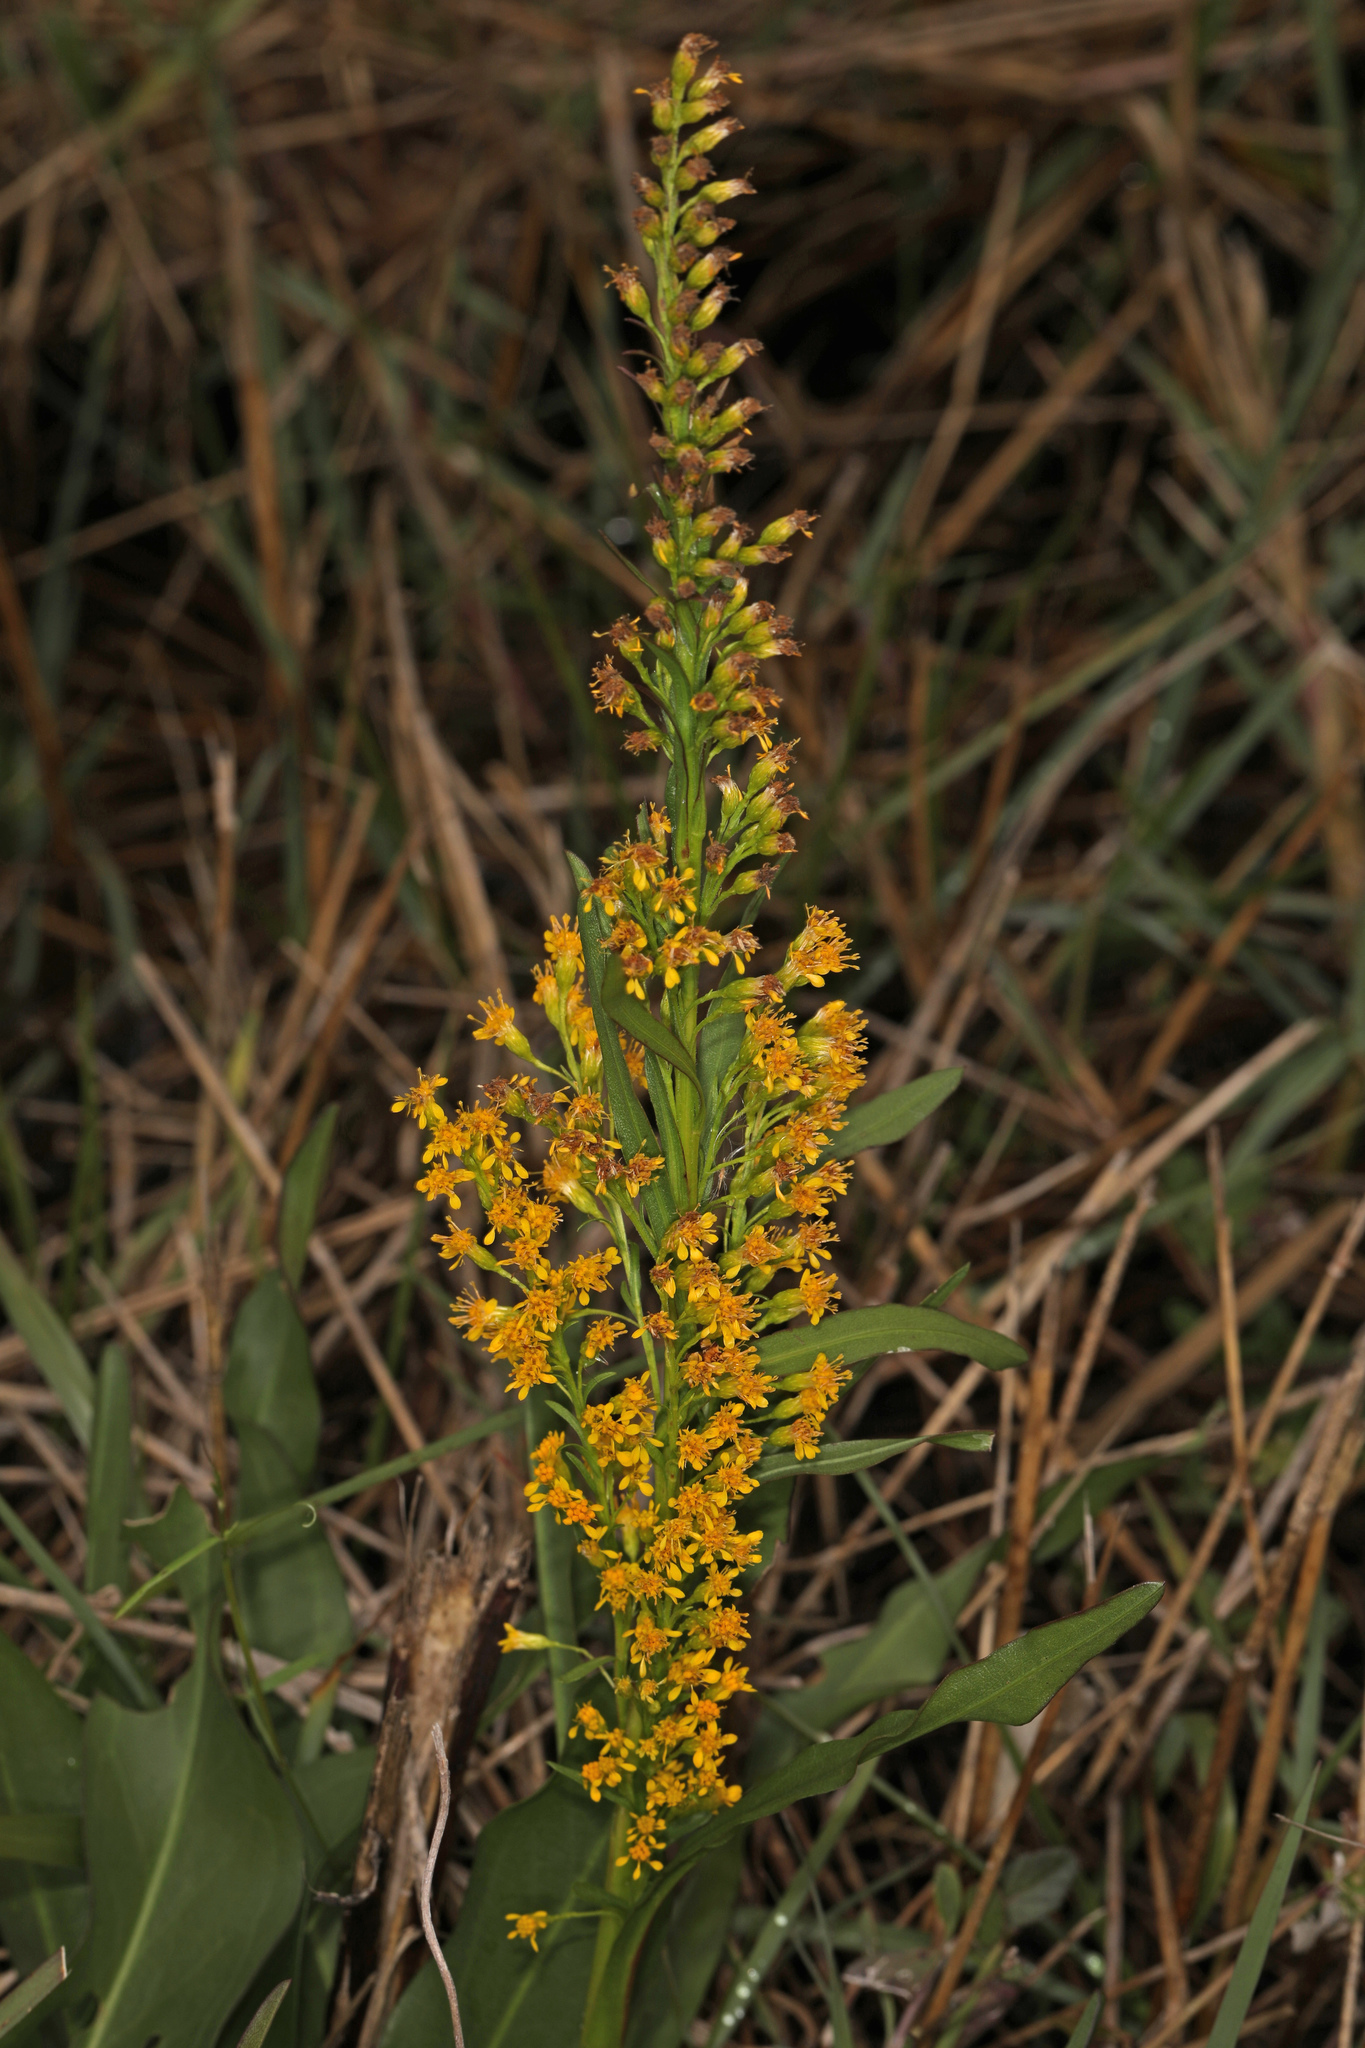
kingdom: Plantae
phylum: Tracheophyta
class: Magnoliopsida
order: Asterales
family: Asteraceae
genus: Solidago
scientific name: Solidago mexicana
